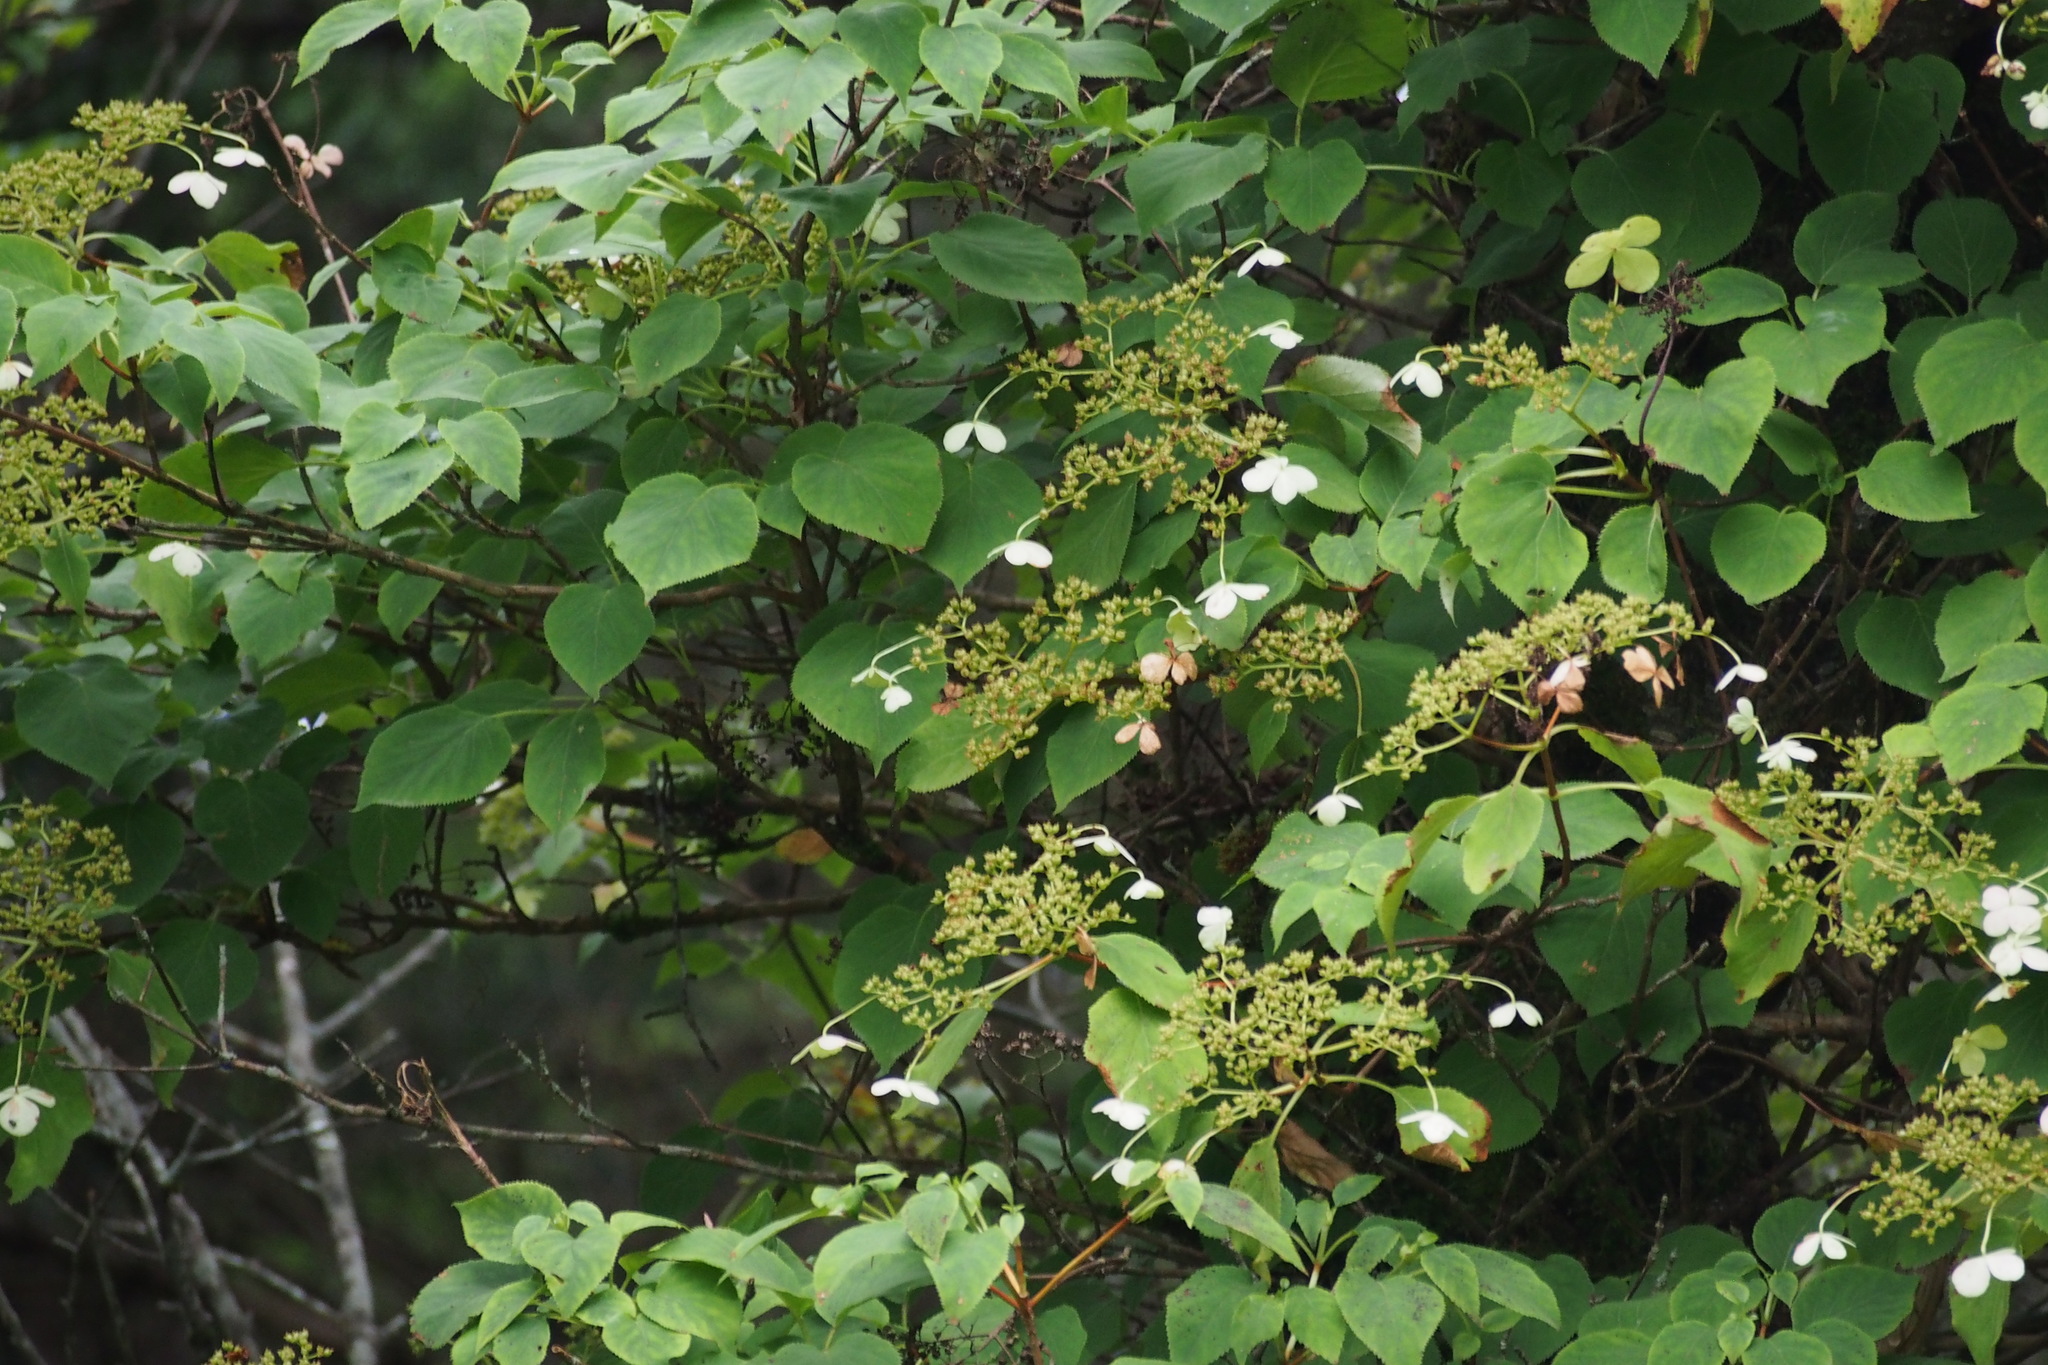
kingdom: Plantae
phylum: Tracheophyta
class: Magnoliopsida
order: Cornales
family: Hydrangeaceae
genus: Hydrangea
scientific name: Hydrangea petiolaris
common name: Japanese climbing hydrangea
